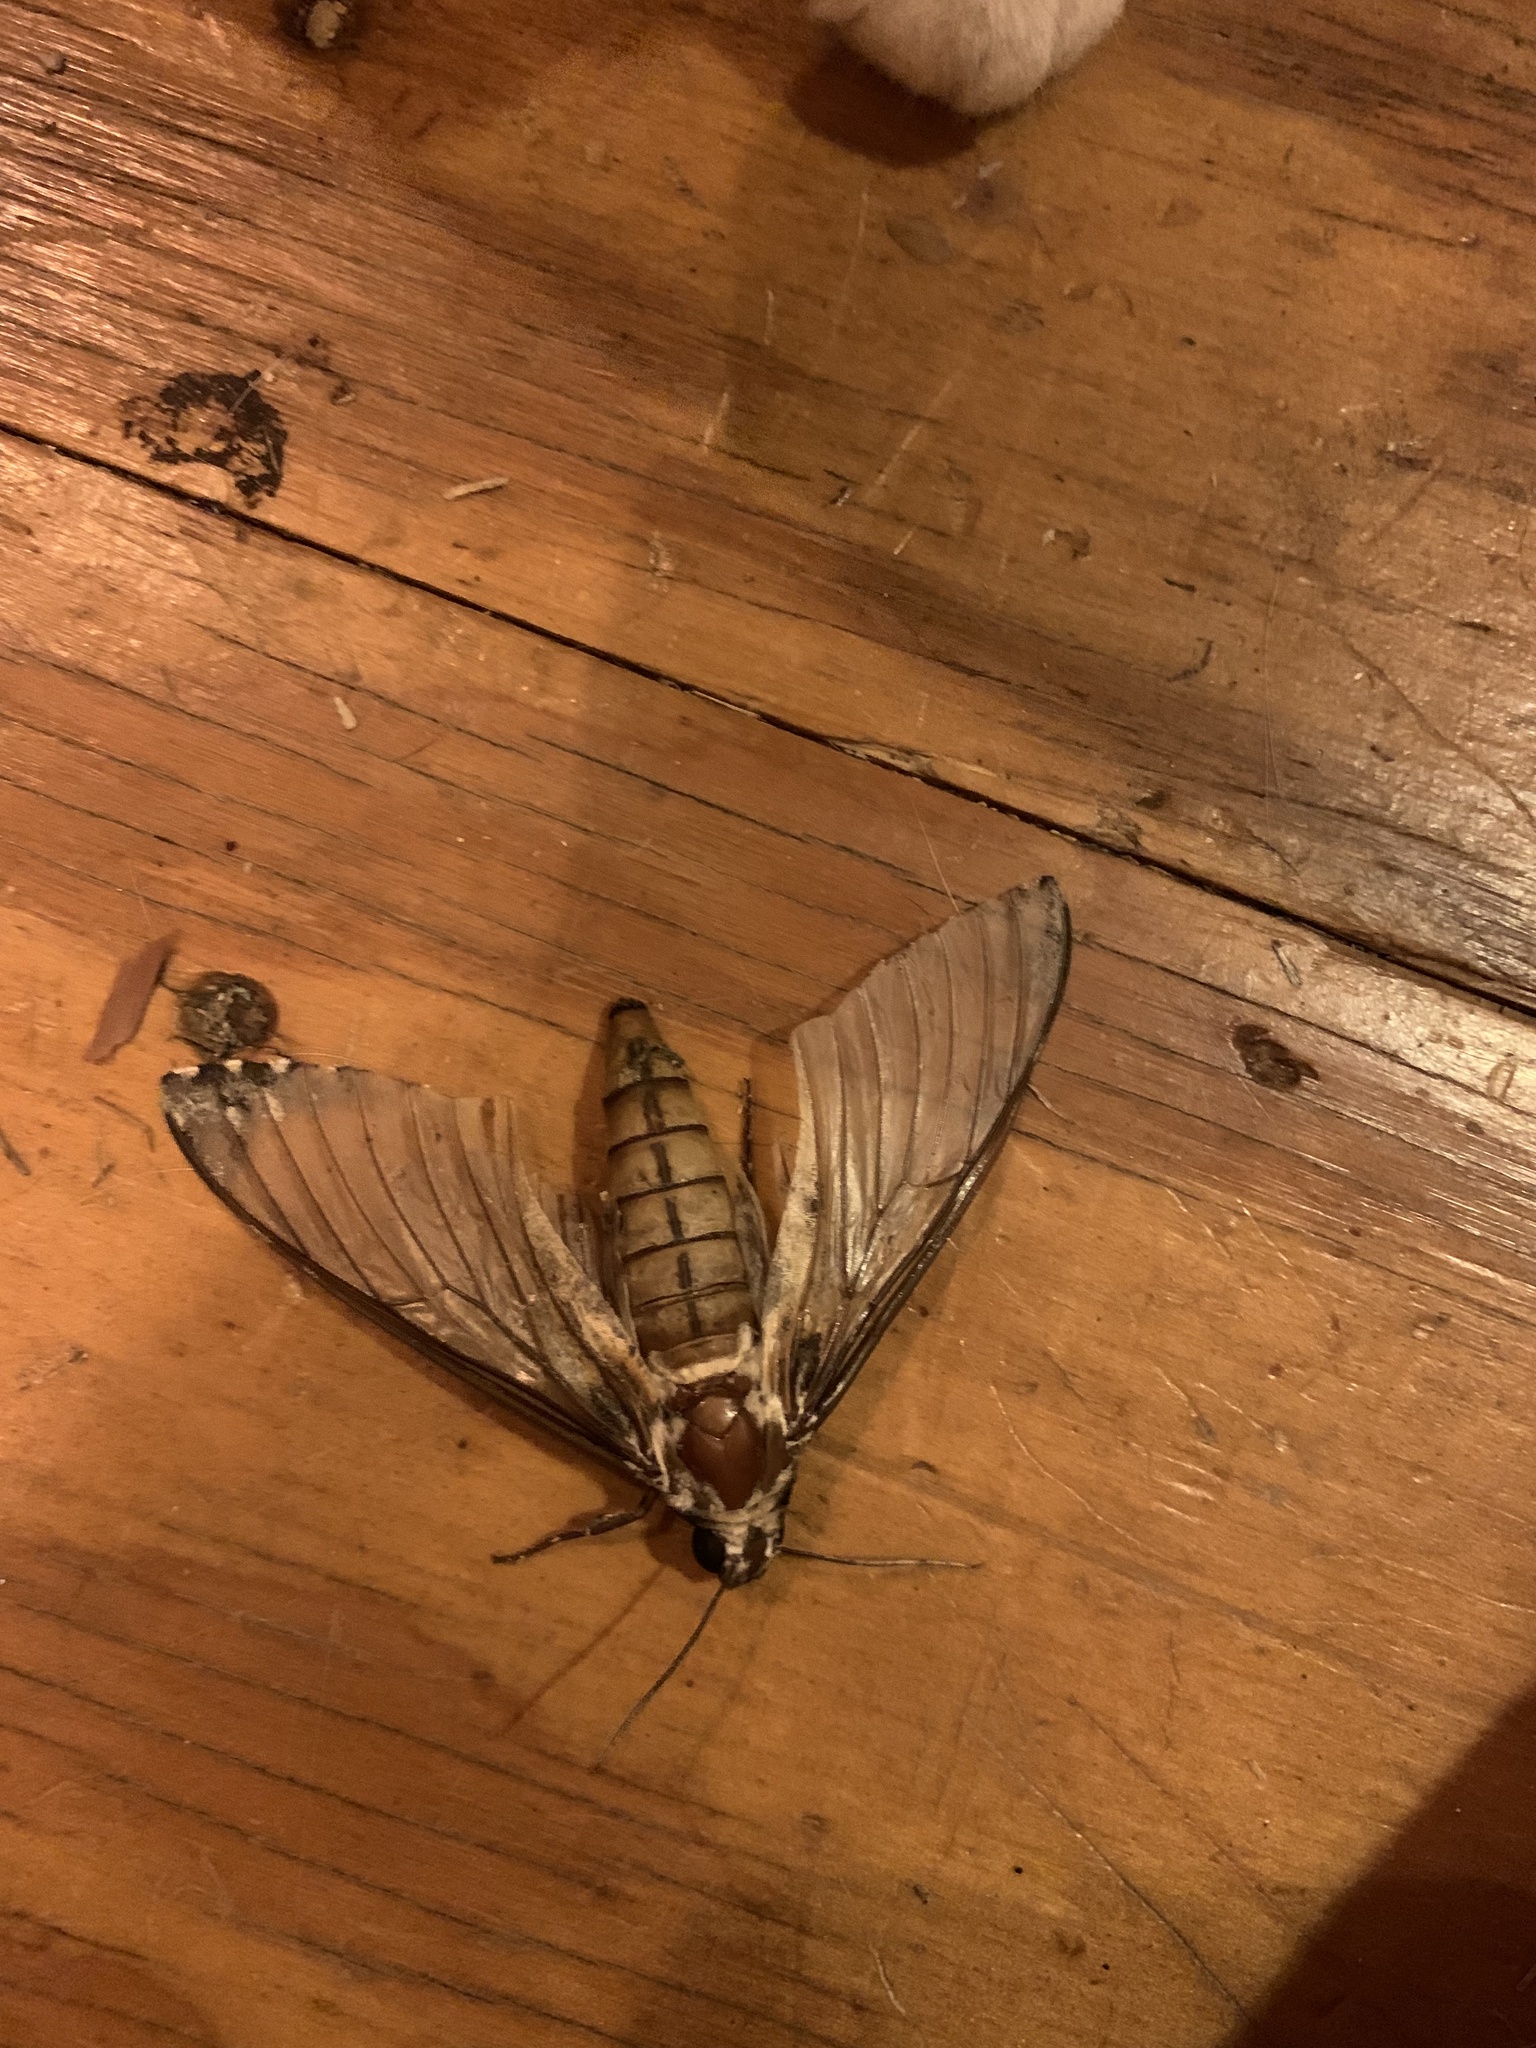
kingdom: Animalia
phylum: Arthropoda
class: Insecta
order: Lepidoptera
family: Sphingidae
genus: Manduca
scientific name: Manduca rustica
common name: Rustic sphinx
